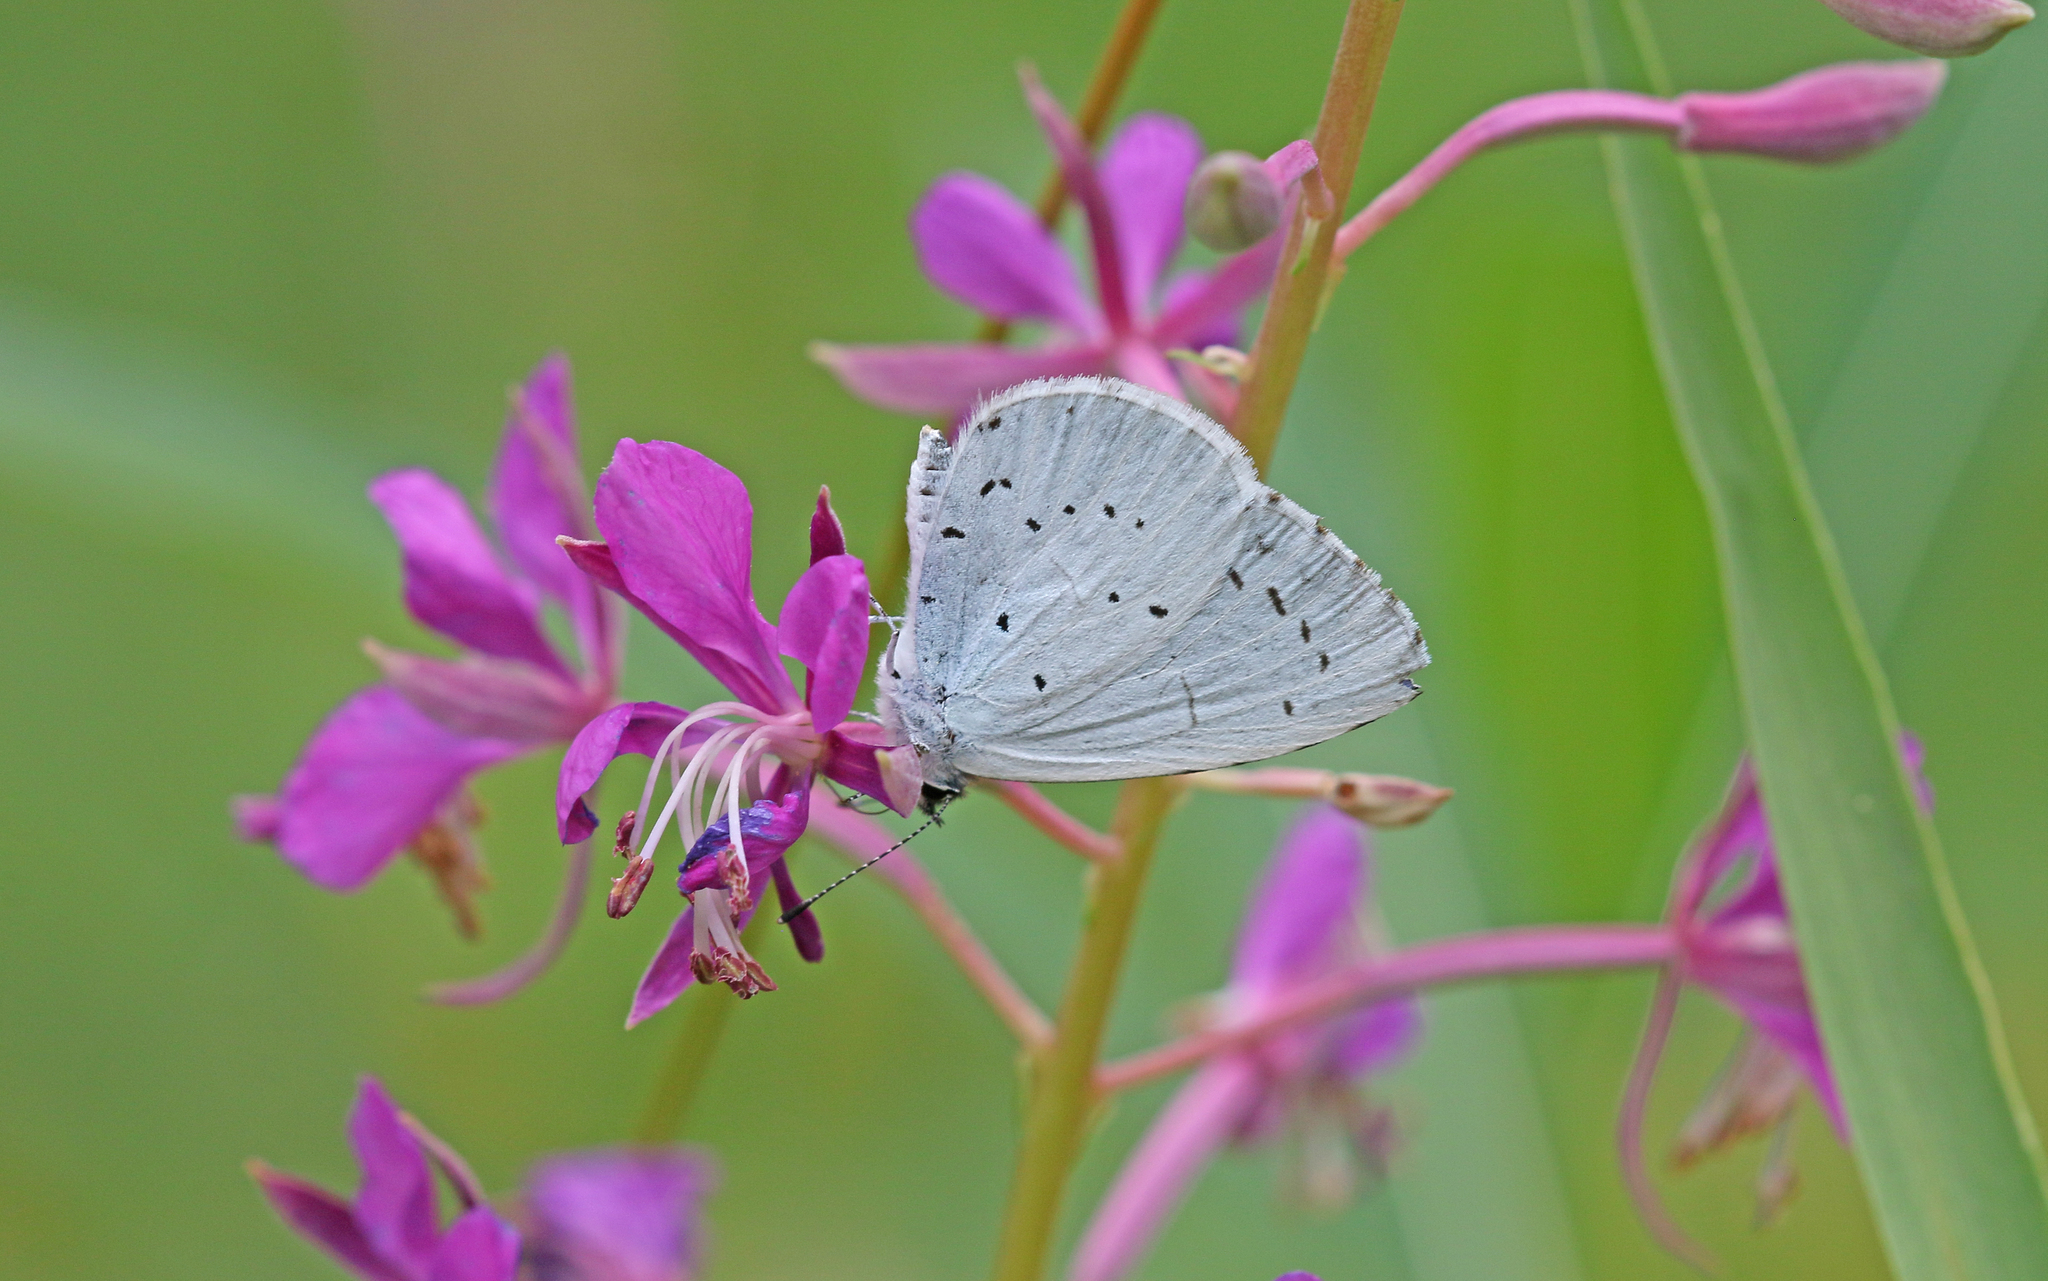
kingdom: Animalia
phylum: Arthropoda
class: Insecta
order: Lepidoptera
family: Lycaenidae
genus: Celastrina
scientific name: Celastrina argiolus
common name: Holly blue
